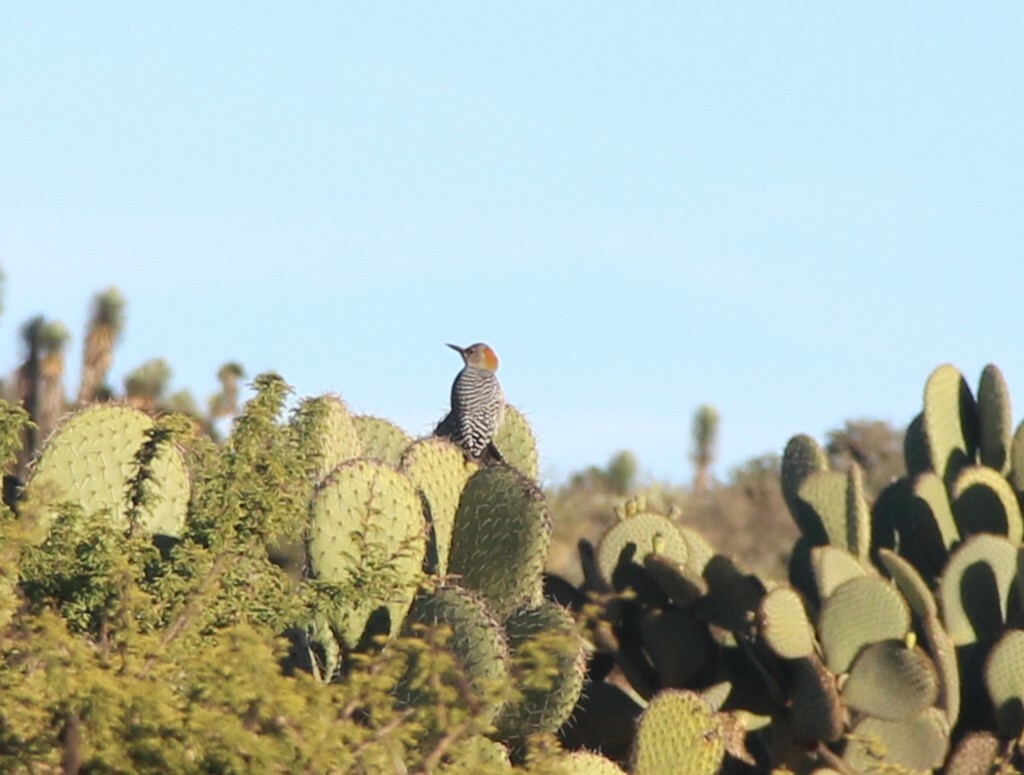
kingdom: Animalia
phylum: Chordata
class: Aves
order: Piciformes
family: Picidae
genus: Melanerpes
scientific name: Melanerpes aurifrons
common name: Golden-fronted woodpecker
